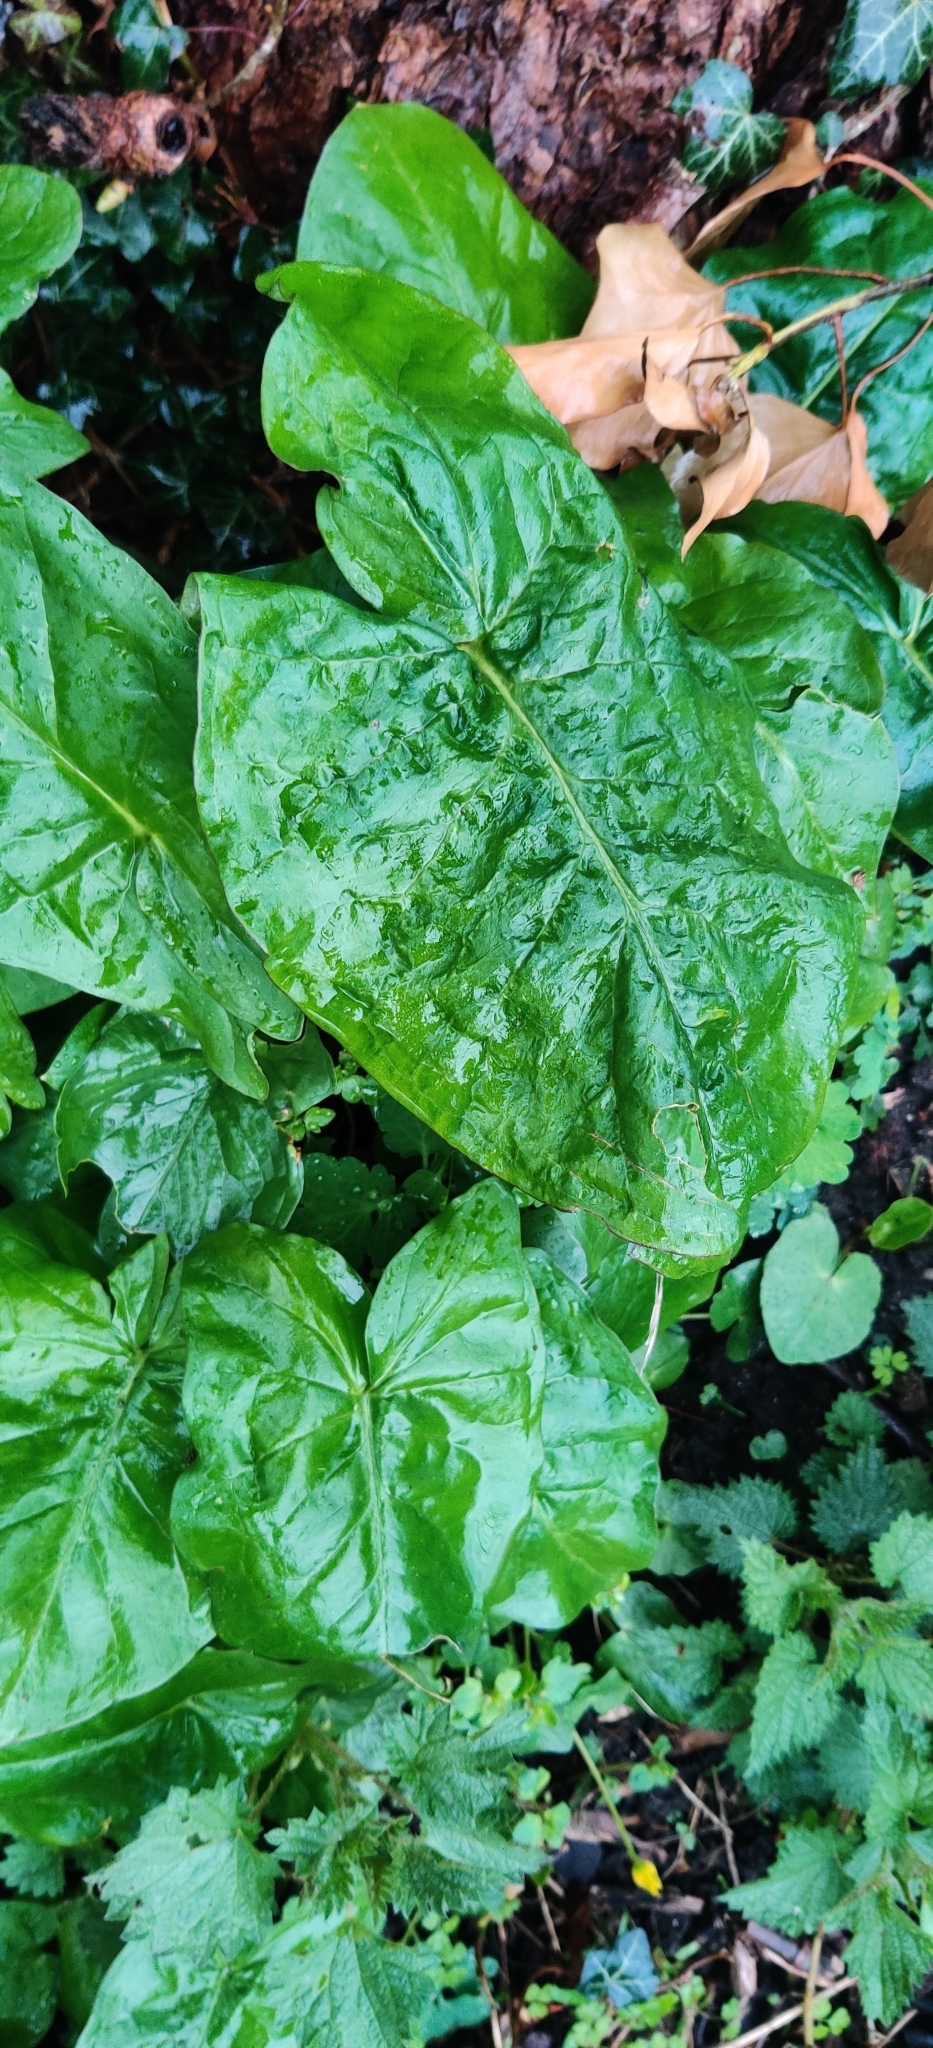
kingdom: Plantae
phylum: Tracheophyta
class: Liliopsida
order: Alismatales
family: Araceae
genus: Arum
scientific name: Arum maculatum
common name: Lords-and-ladies
